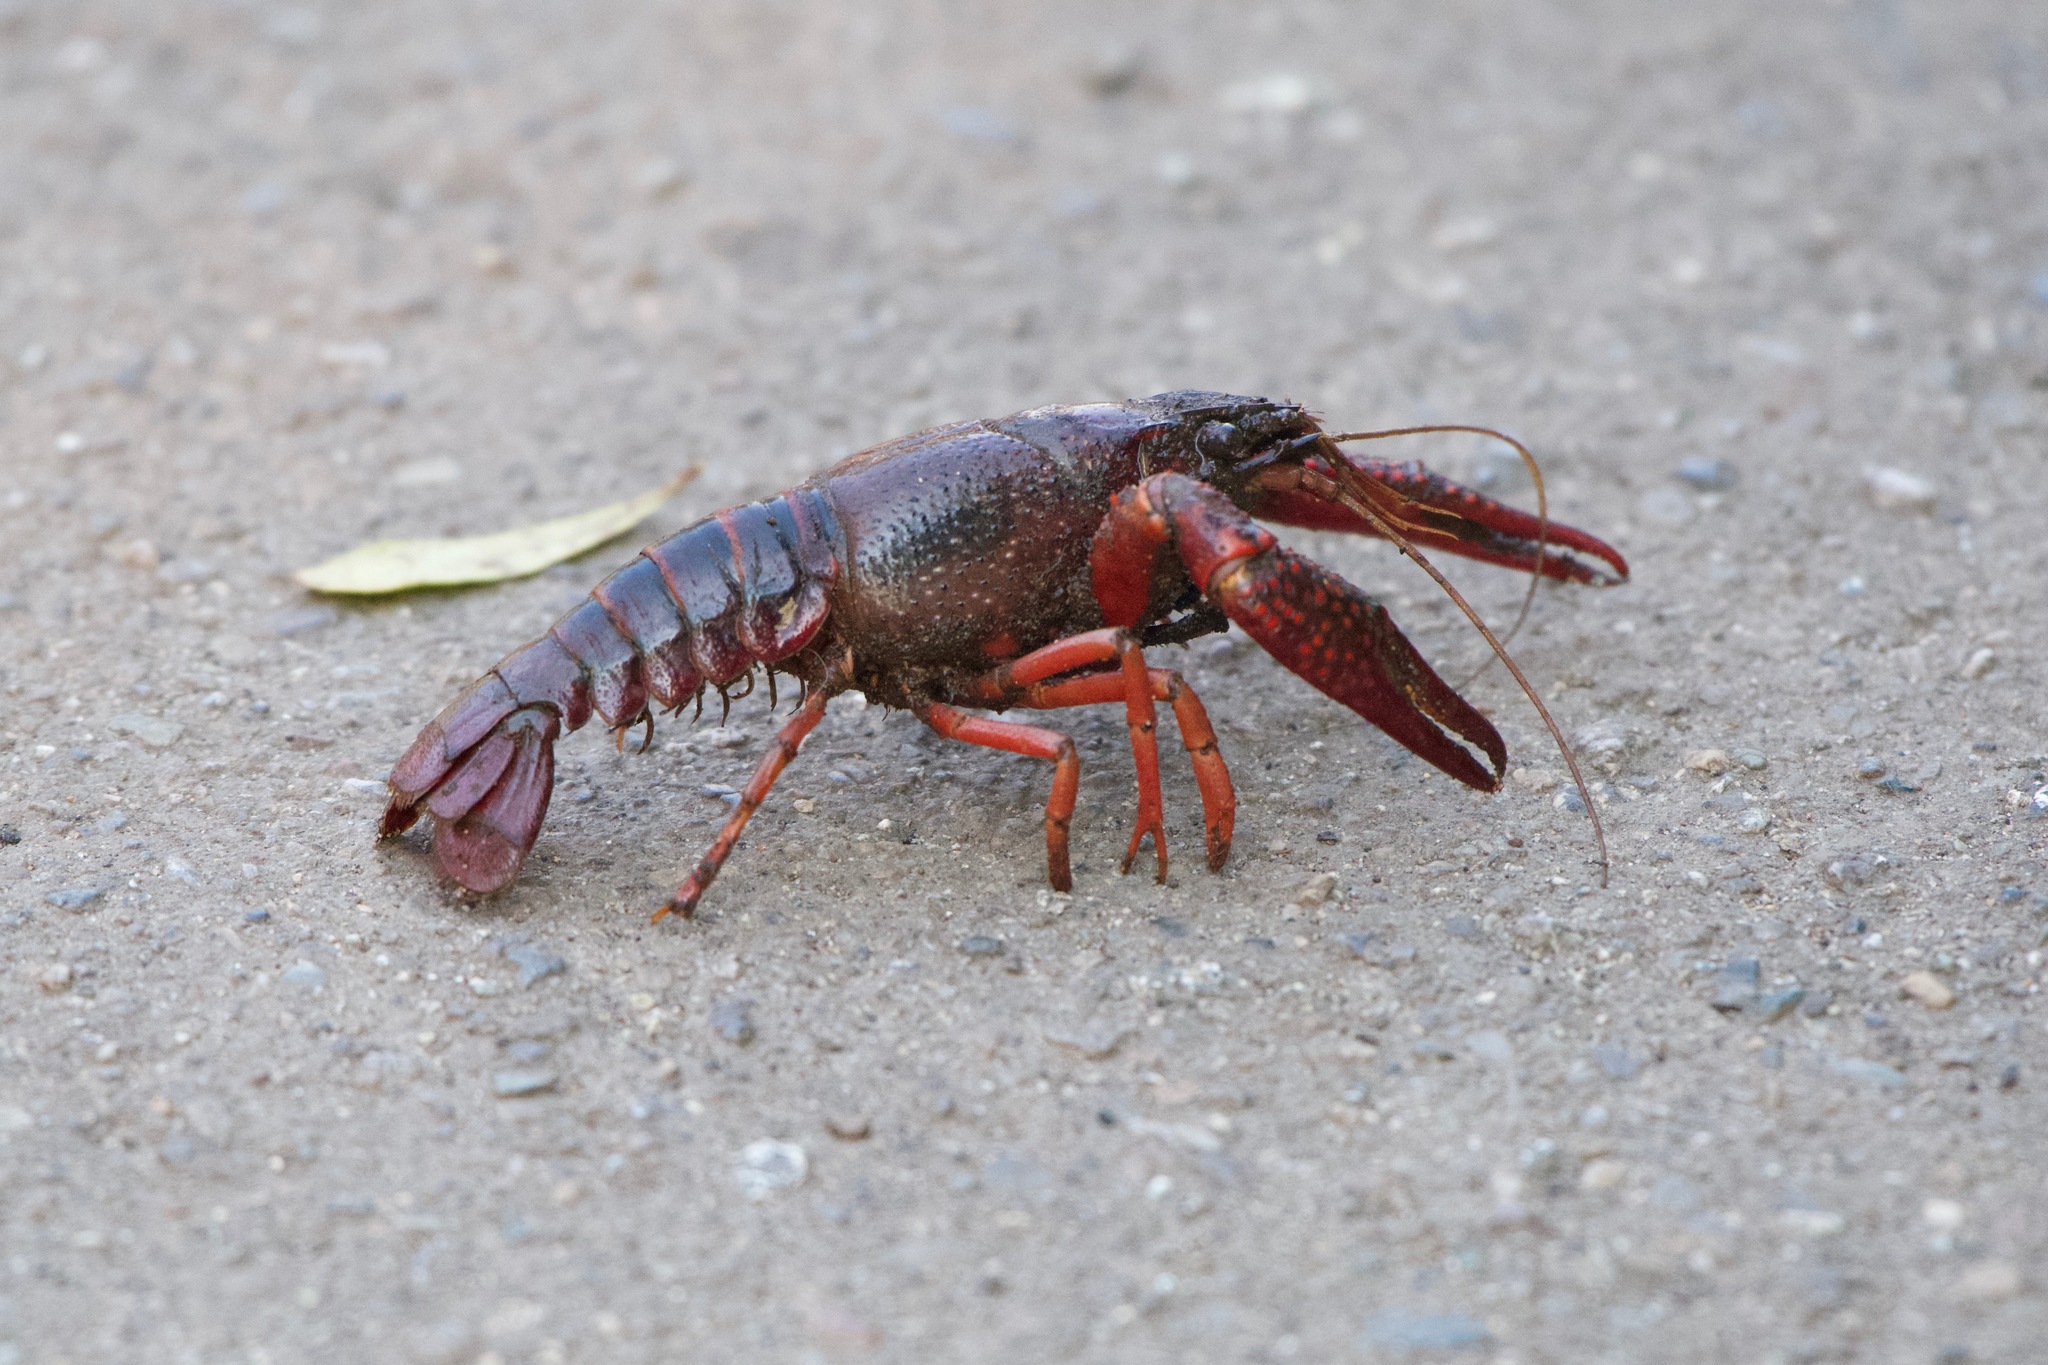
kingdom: Animalia
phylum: Arthropoda
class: Malacostraca
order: Decapoda
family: Cambaridae
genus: Procambarus
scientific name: Procambarus clarkii
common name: Red swamp crayfish
